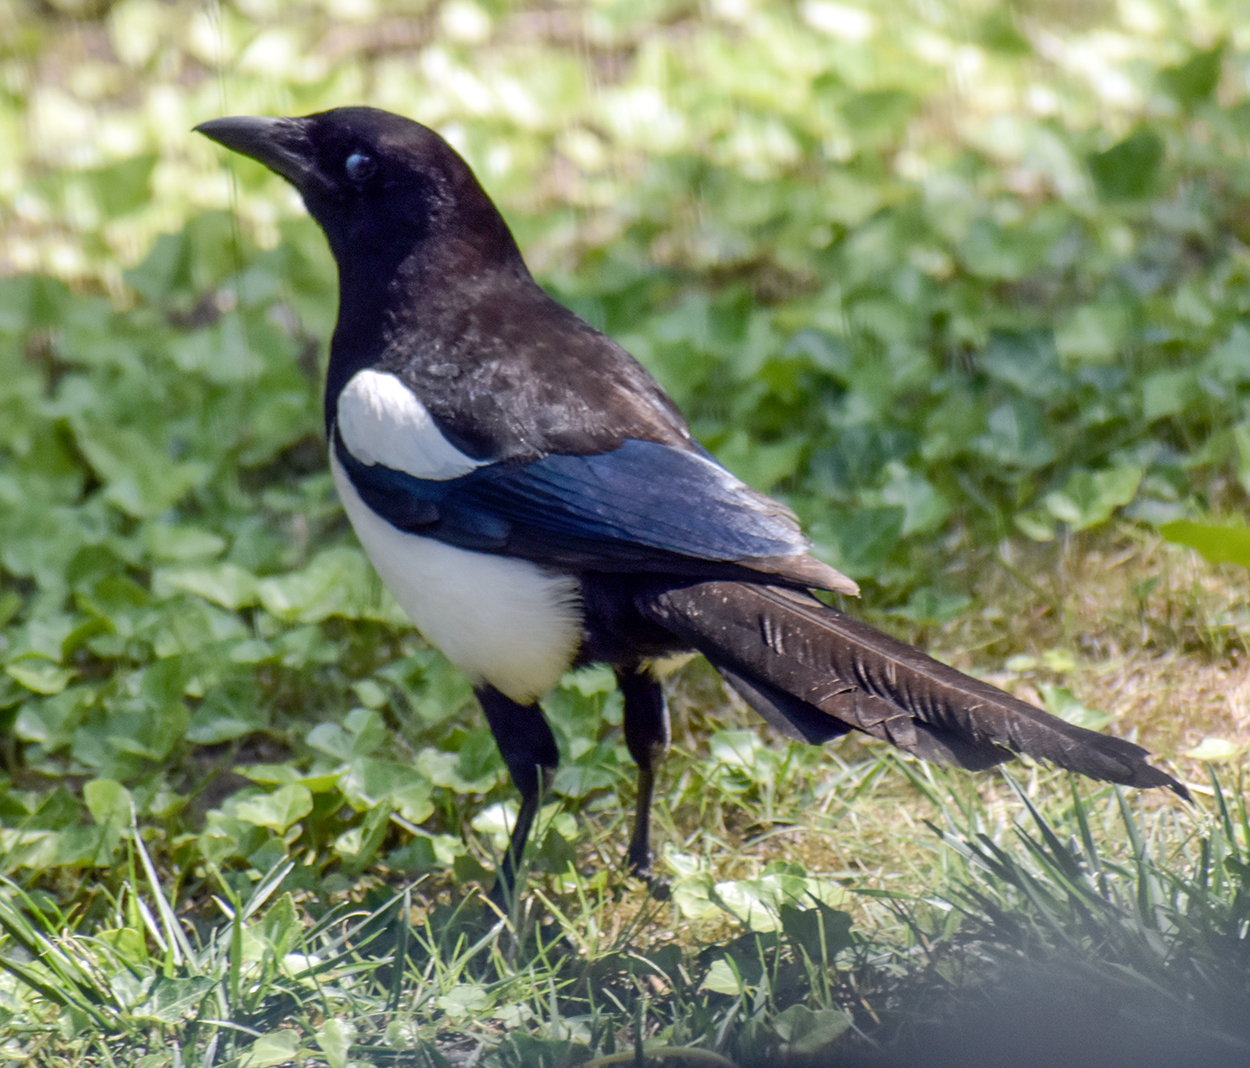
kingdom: Animalia
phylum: Chordata
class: Aves
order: Passeriformes
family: Corvidae
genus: Pica
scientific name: Pica pica
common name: Eurasian magpie
